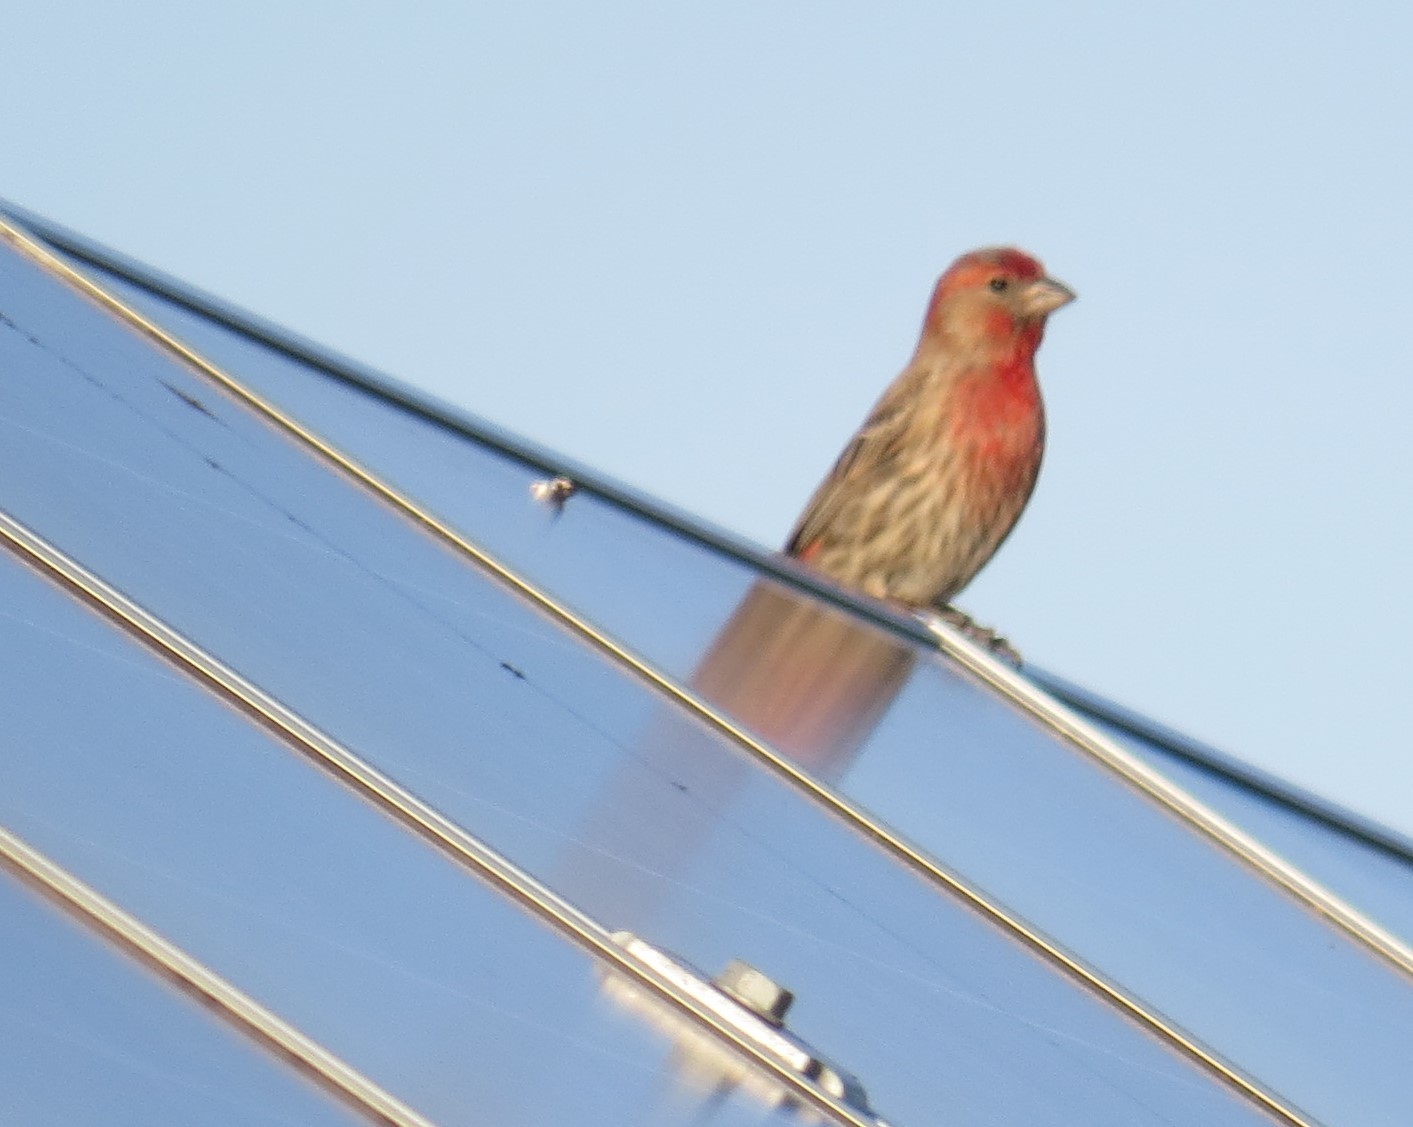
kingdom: Animalia
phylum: Chordata
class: Aves
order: Passeriformes
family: Fringillidae
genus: Haemorhous
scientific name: Haemorhous mexicanus
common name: House finch
